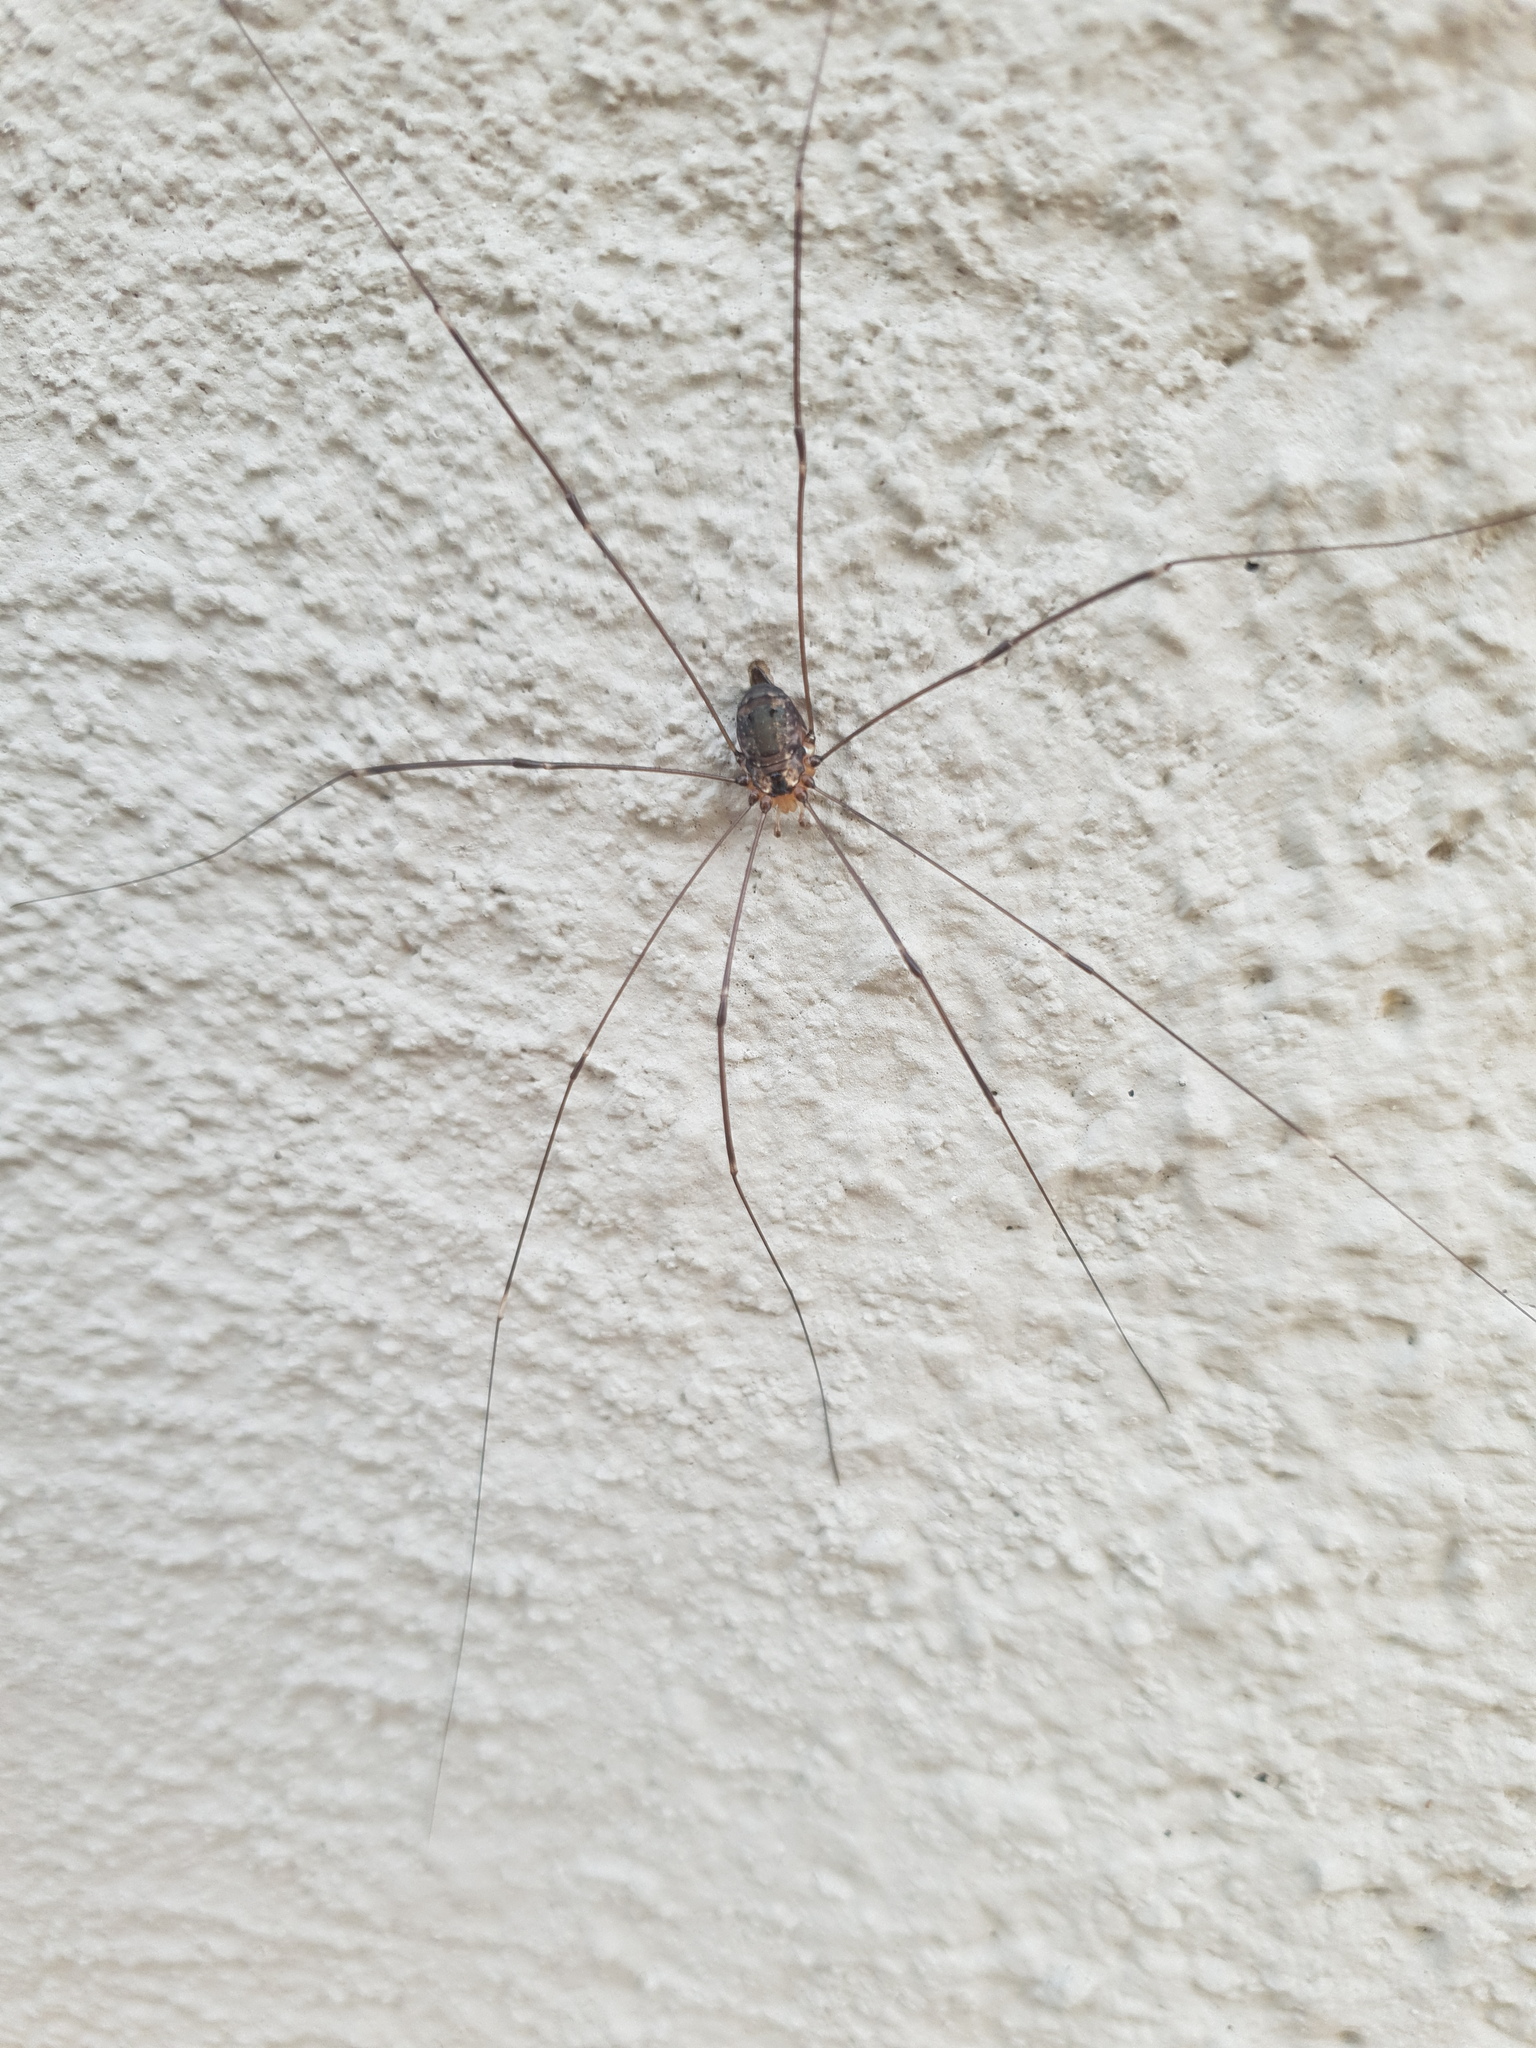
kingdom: Animalia
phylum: Arthropoda
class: Arachnida
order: Opiliones
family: Sclerosomatidae
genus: Leiobunum
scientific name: Leiobunum
